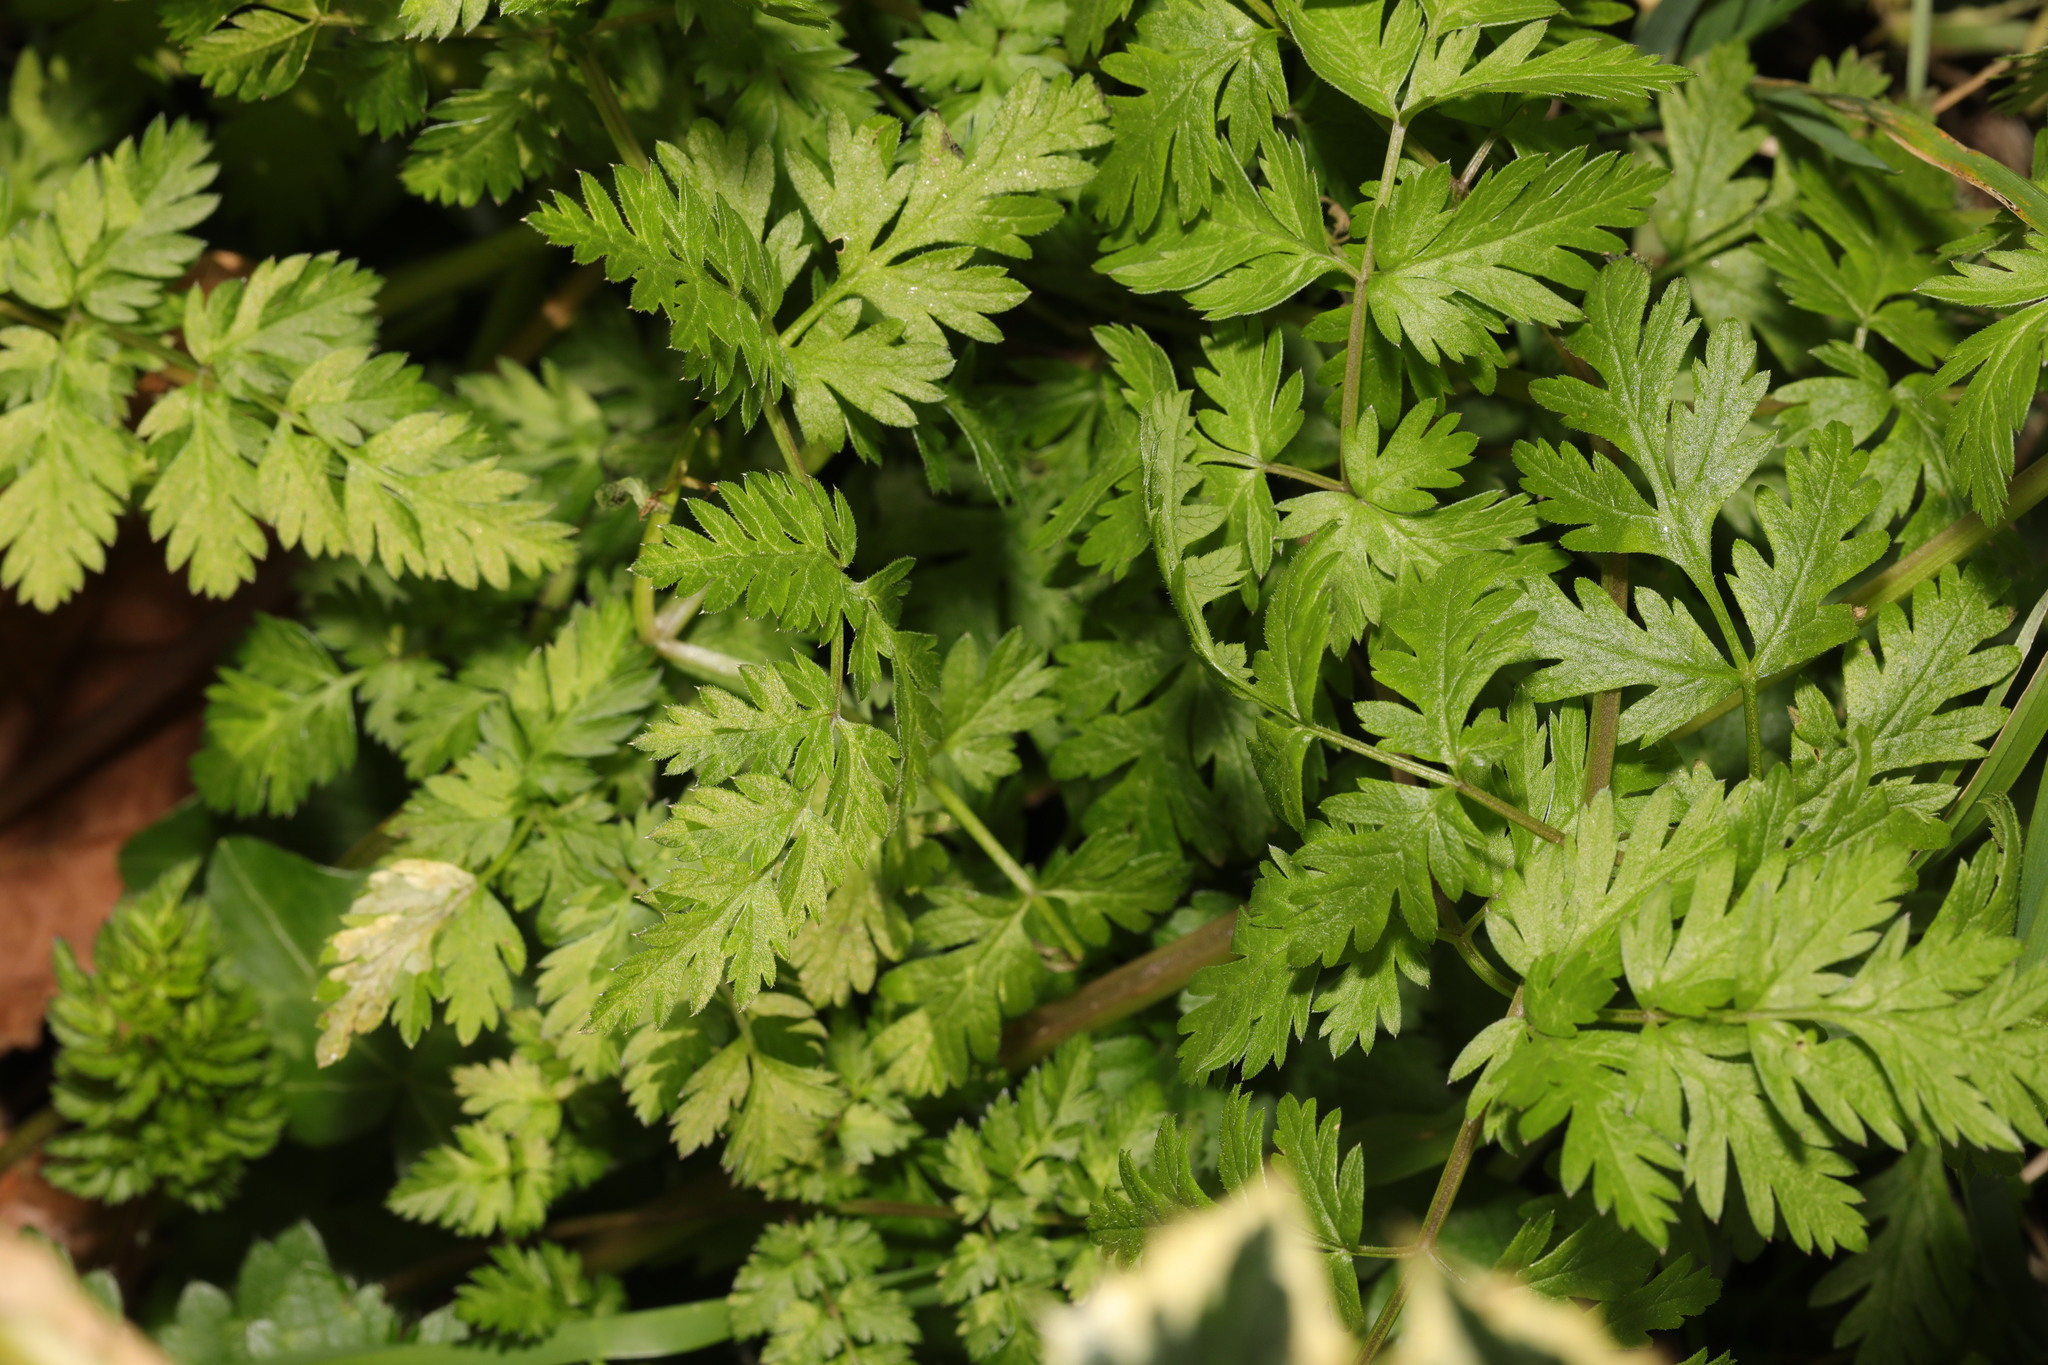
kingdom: Plantae
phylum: Tracheophyta
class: Magnoliopsida
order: Apiales
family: Apiaceae
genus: Anthriscus
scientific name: Anthriscus sylvestris
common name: Cow parsley
